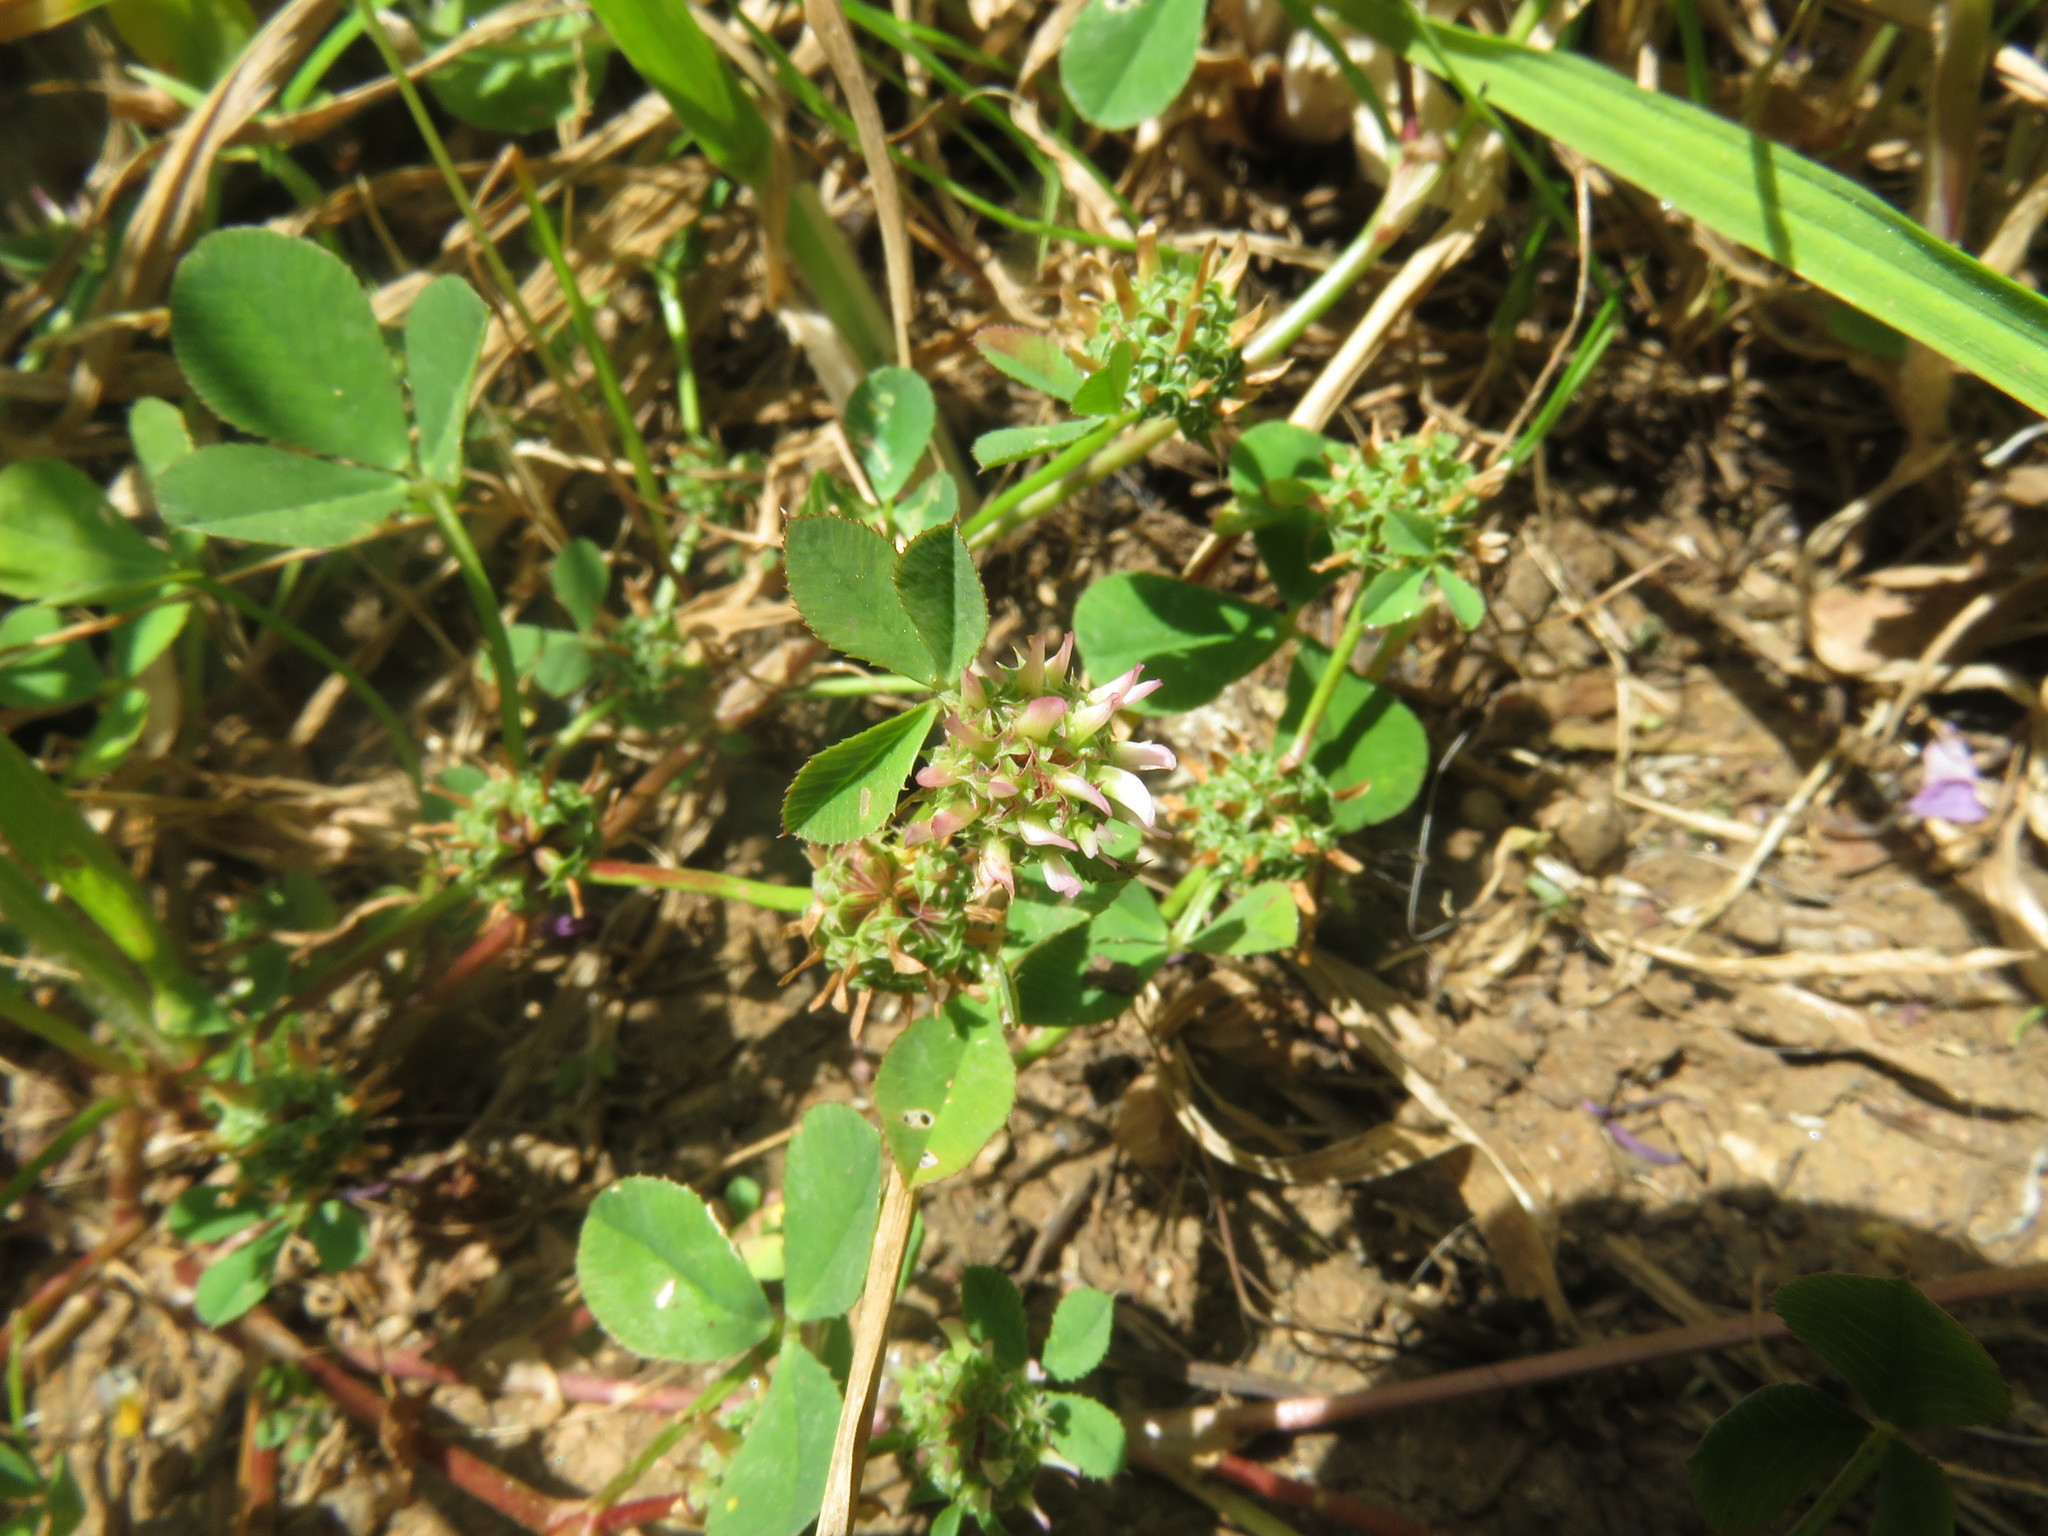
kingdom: Plantae
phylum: Tracheophyta
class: Magnoliopsida
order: Fabales
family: Fabaceae
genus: Trifolium
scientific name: Trifolium glomeratum
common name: Clustered clover
